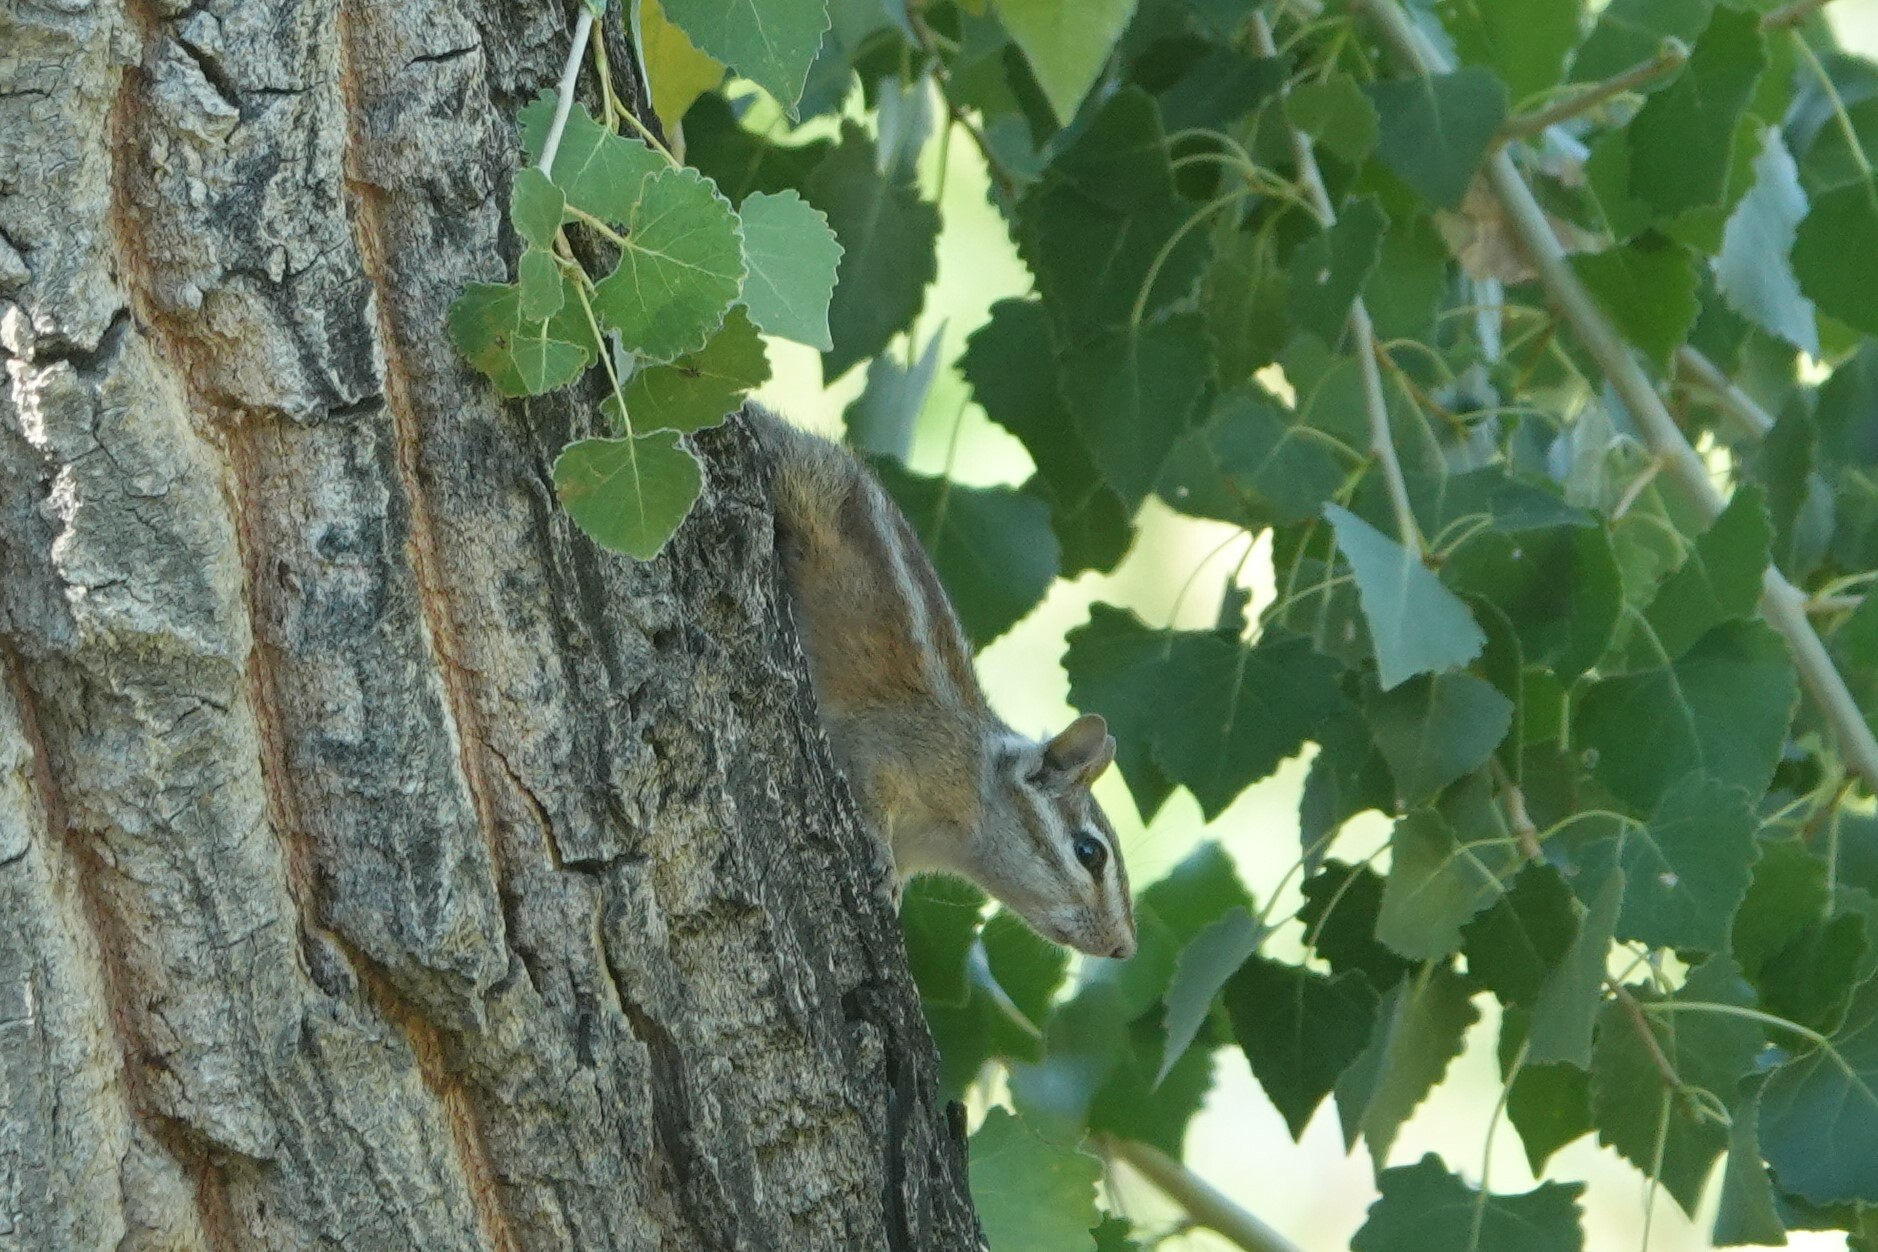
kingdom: Animalia
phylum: Chordata
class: Mammalia
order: Rodentia
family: Sciuridae
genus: Tamias
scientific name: Tamias merriami
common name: Merriam's chipmunk
